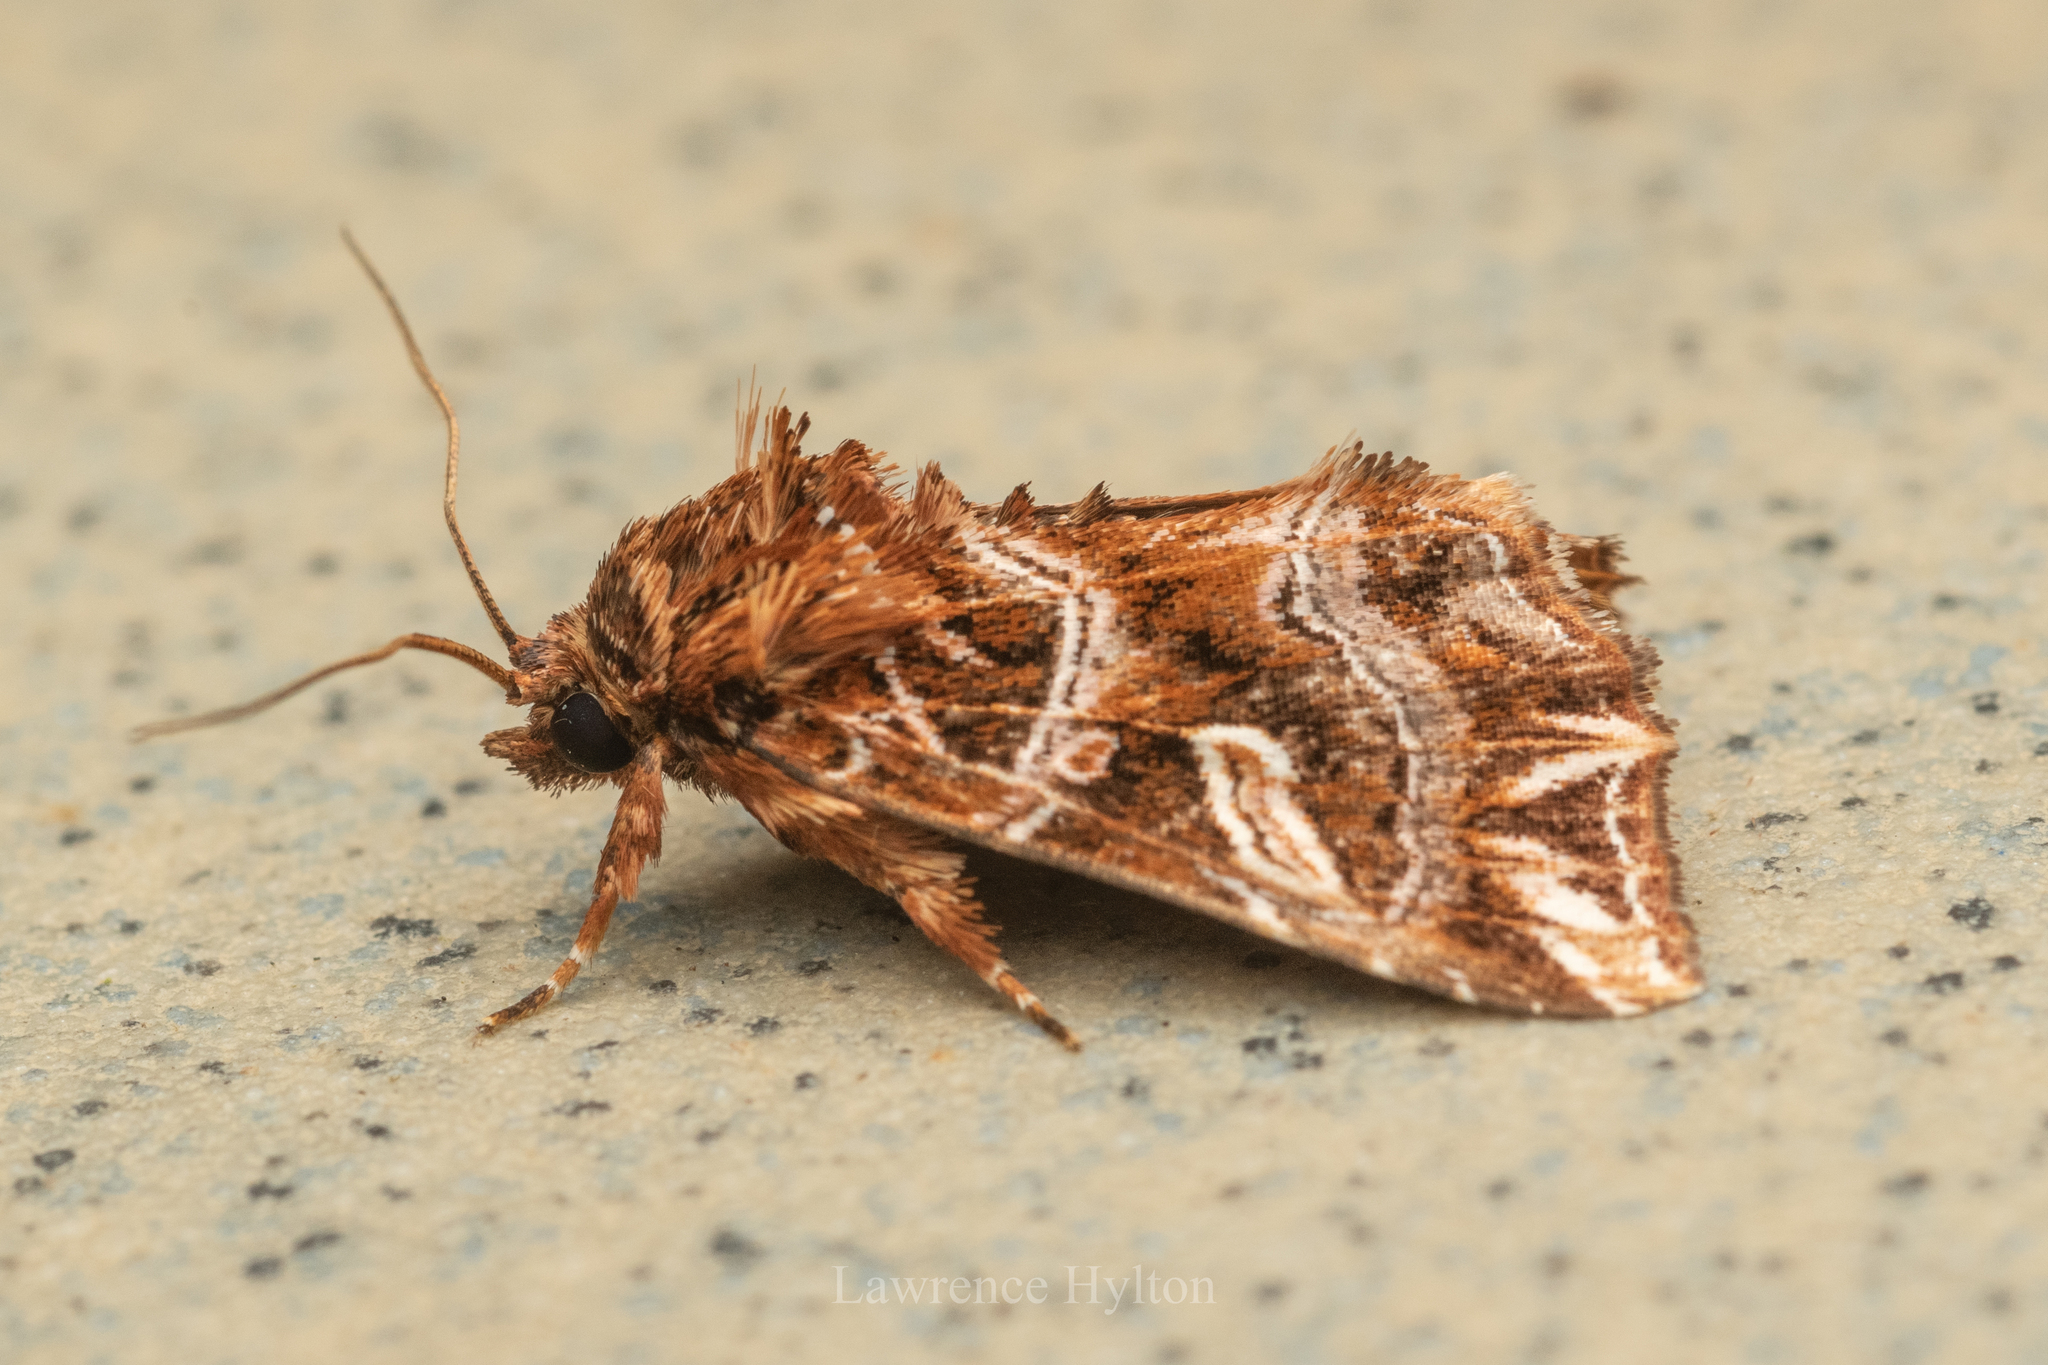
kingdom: Animalia
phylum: Arthropoda
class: Insecta
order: Lepidoptera
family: Noctuidae
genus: Callopistria
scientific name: Callopistria exotica
